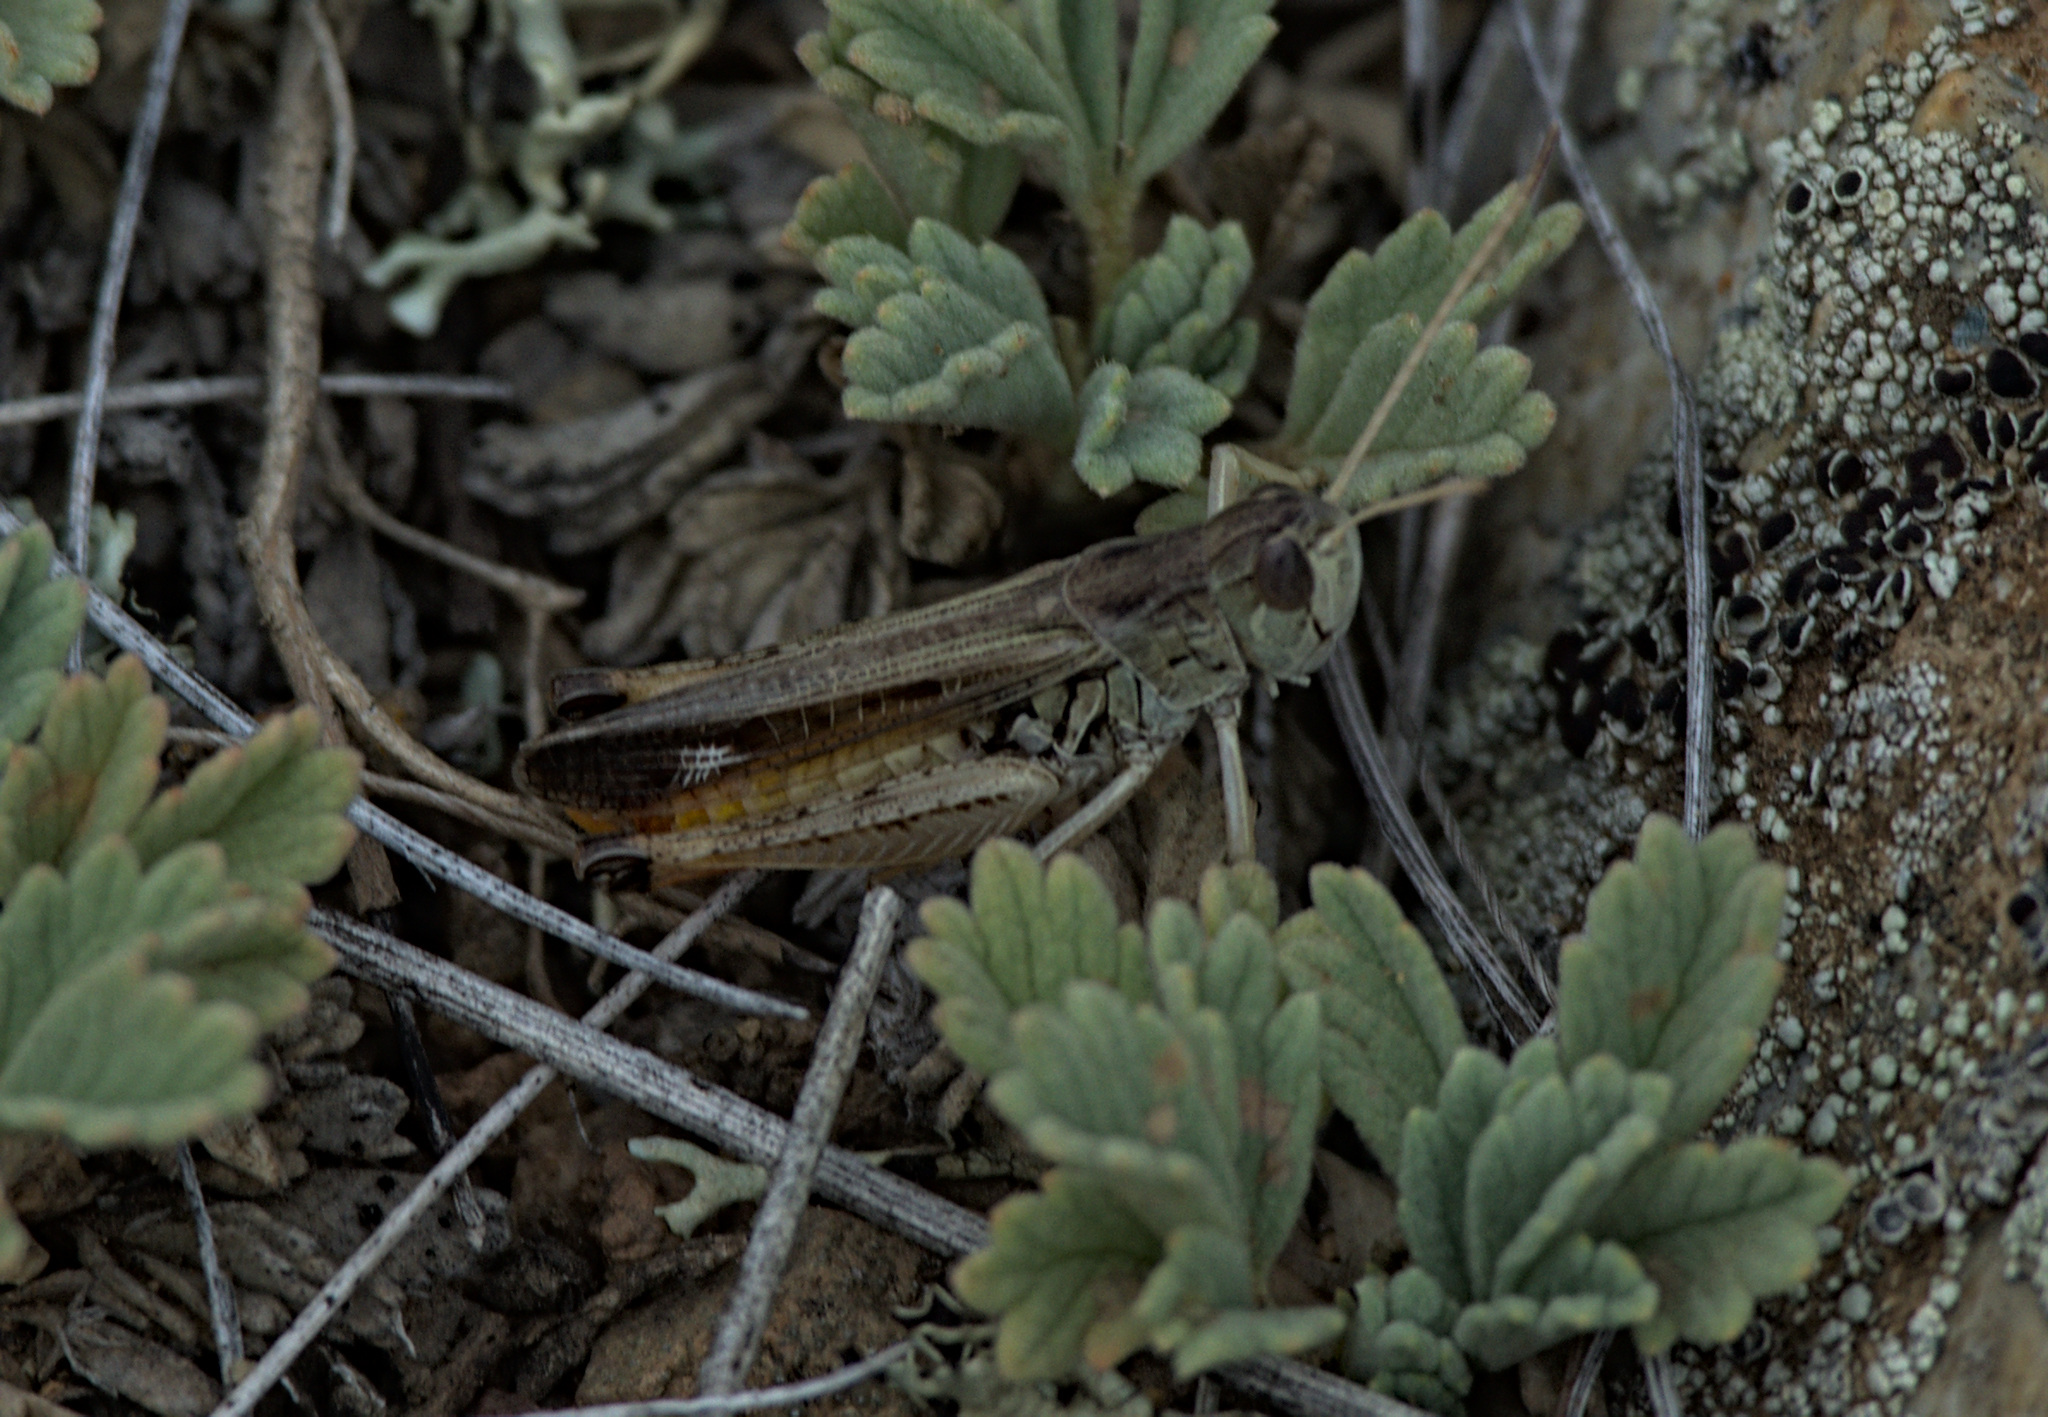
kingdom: Animalia
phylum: Arthropoda
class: Insecta
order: Orthoptera
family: Acrididae
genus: Stenobothrus
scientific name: Stenobothrus eurasius
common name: Eurasian toothed grasshopper
